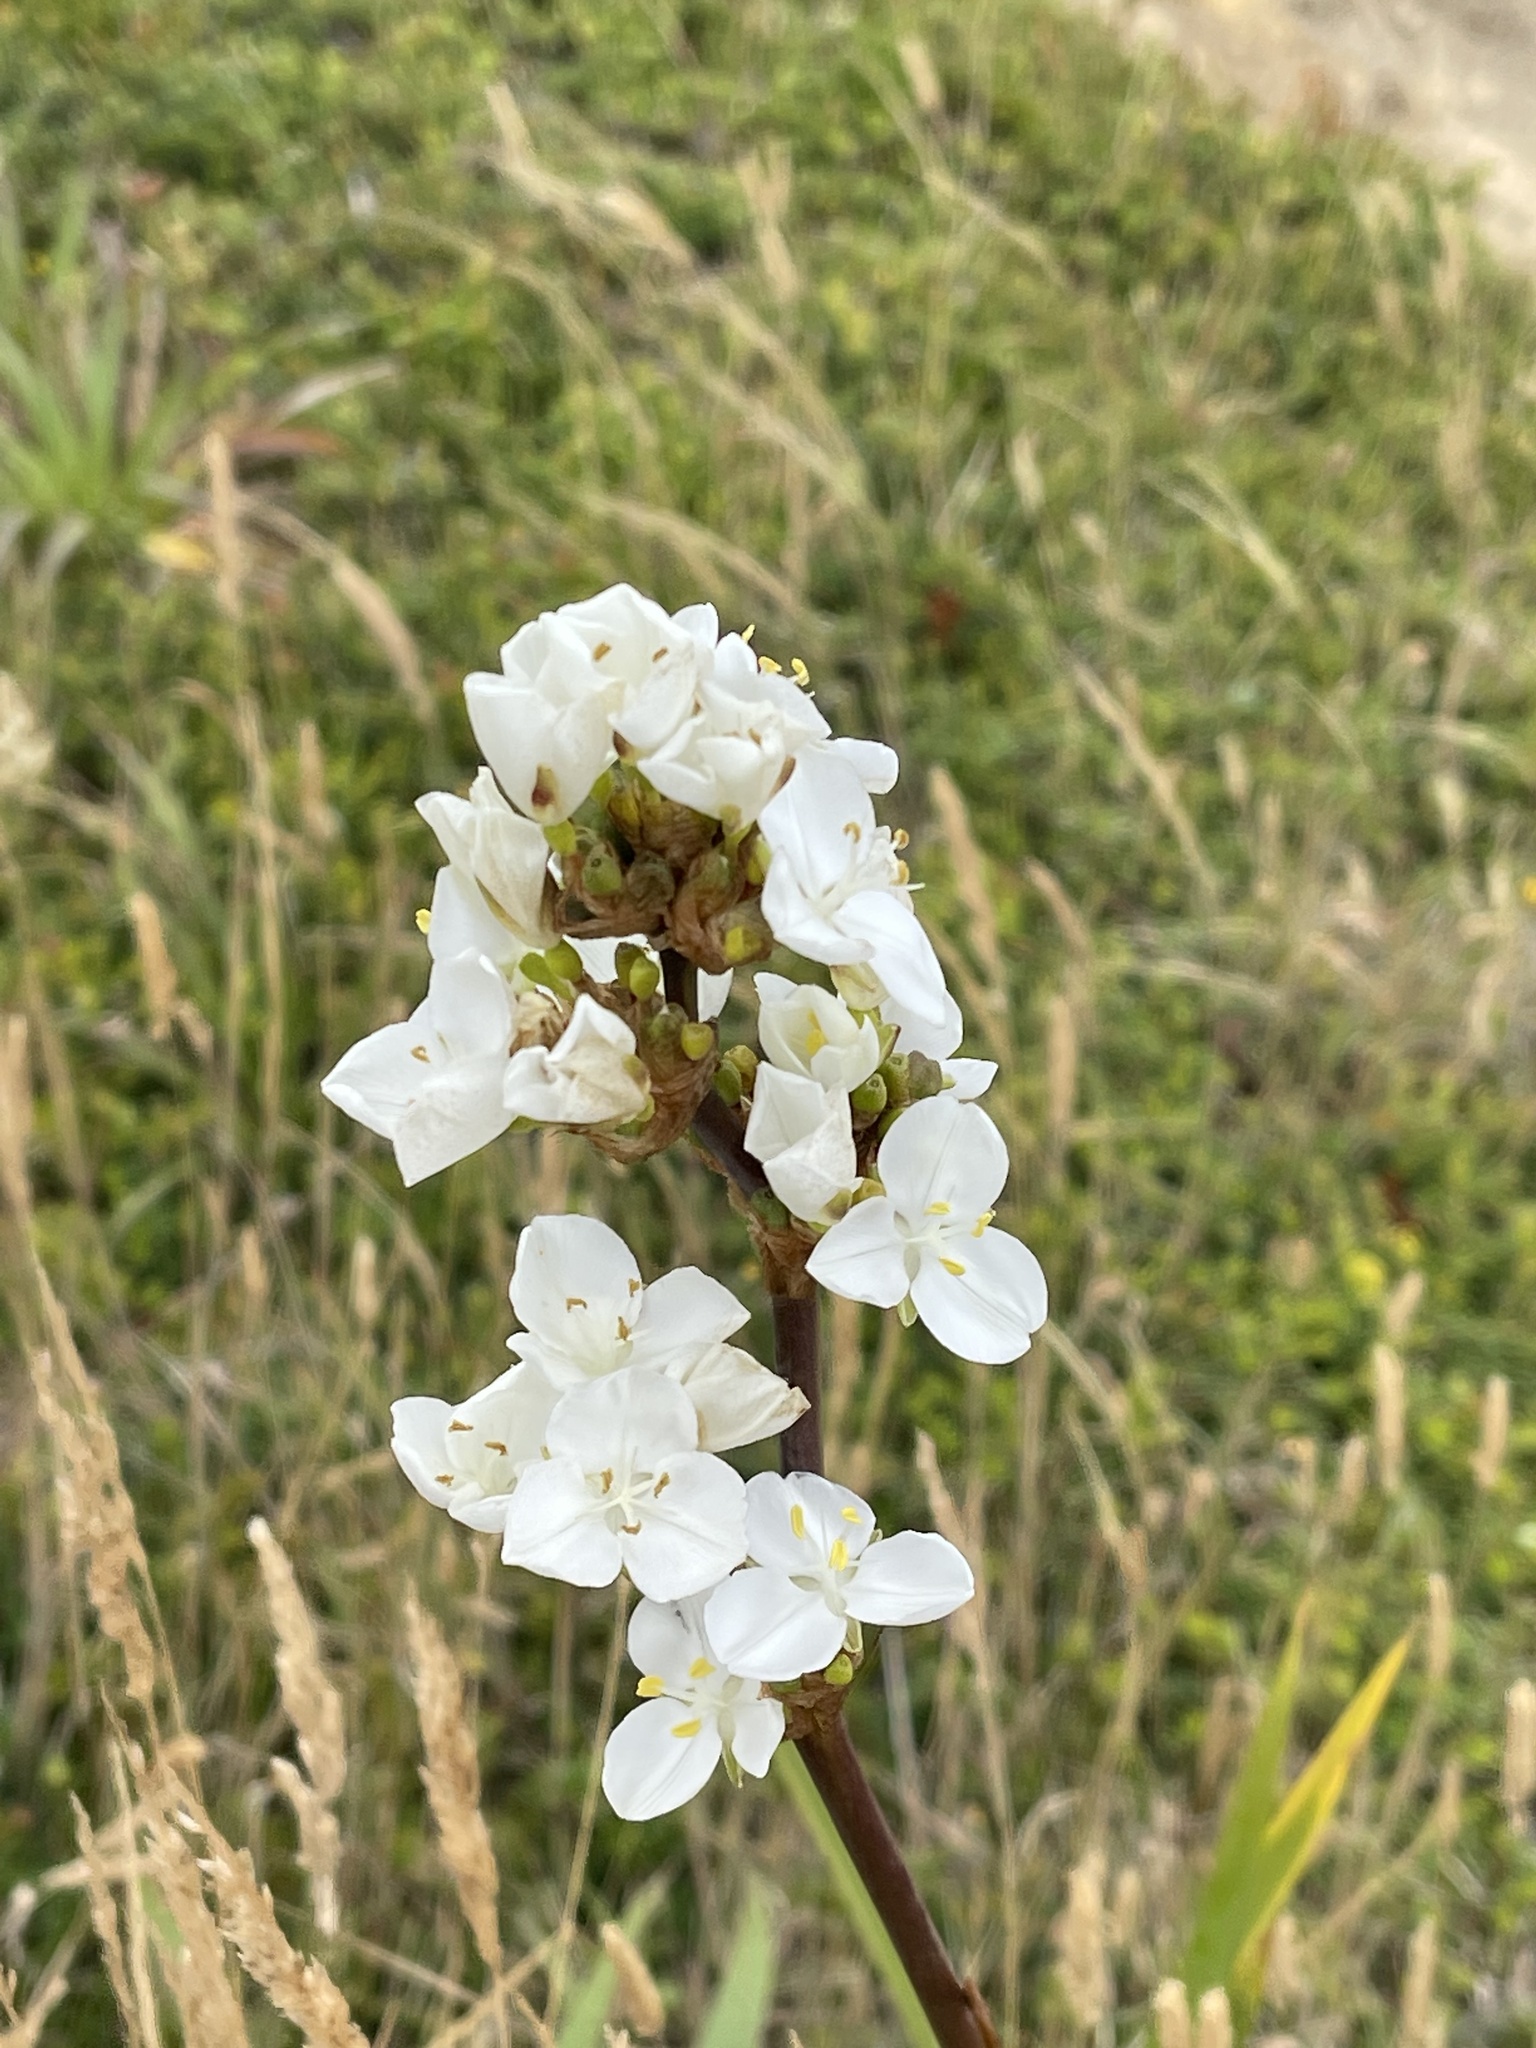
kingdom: Plantae
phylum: Tracheophyta
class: Liliopsida
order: Asparagales
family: Iridaceae
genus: Libertia
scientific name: Libertia chilensis
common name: Satin flower
